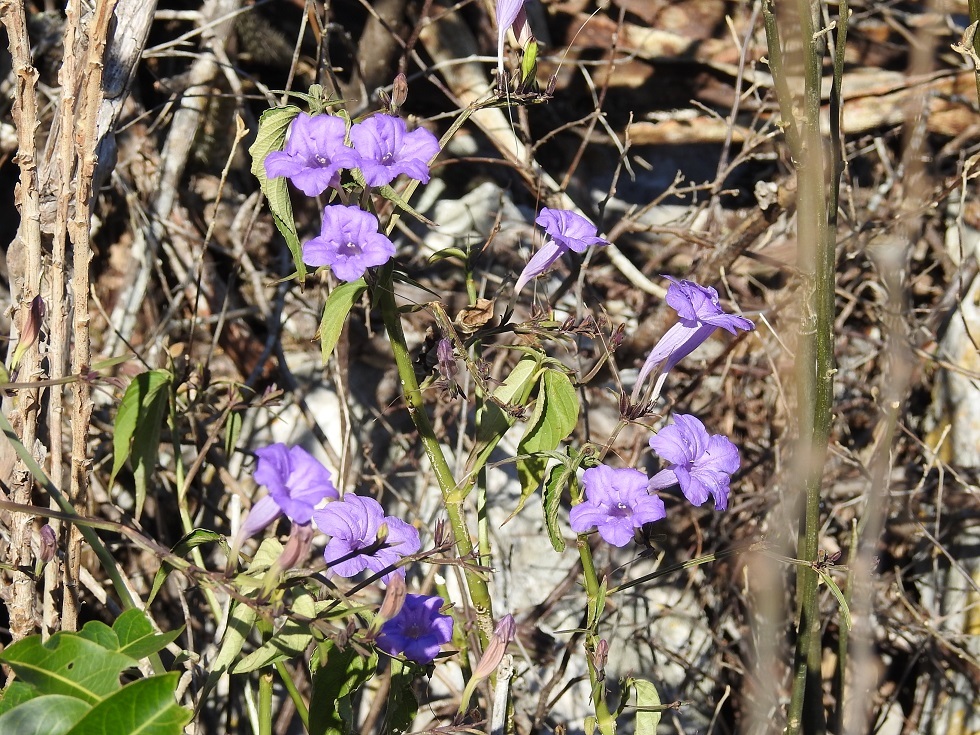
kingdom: Plantae
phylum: Tracheophyta
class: Magnoliopsida
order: Lamiales
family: Acanthaceae
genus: Ruellia
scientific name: Ruellia breedlovei
